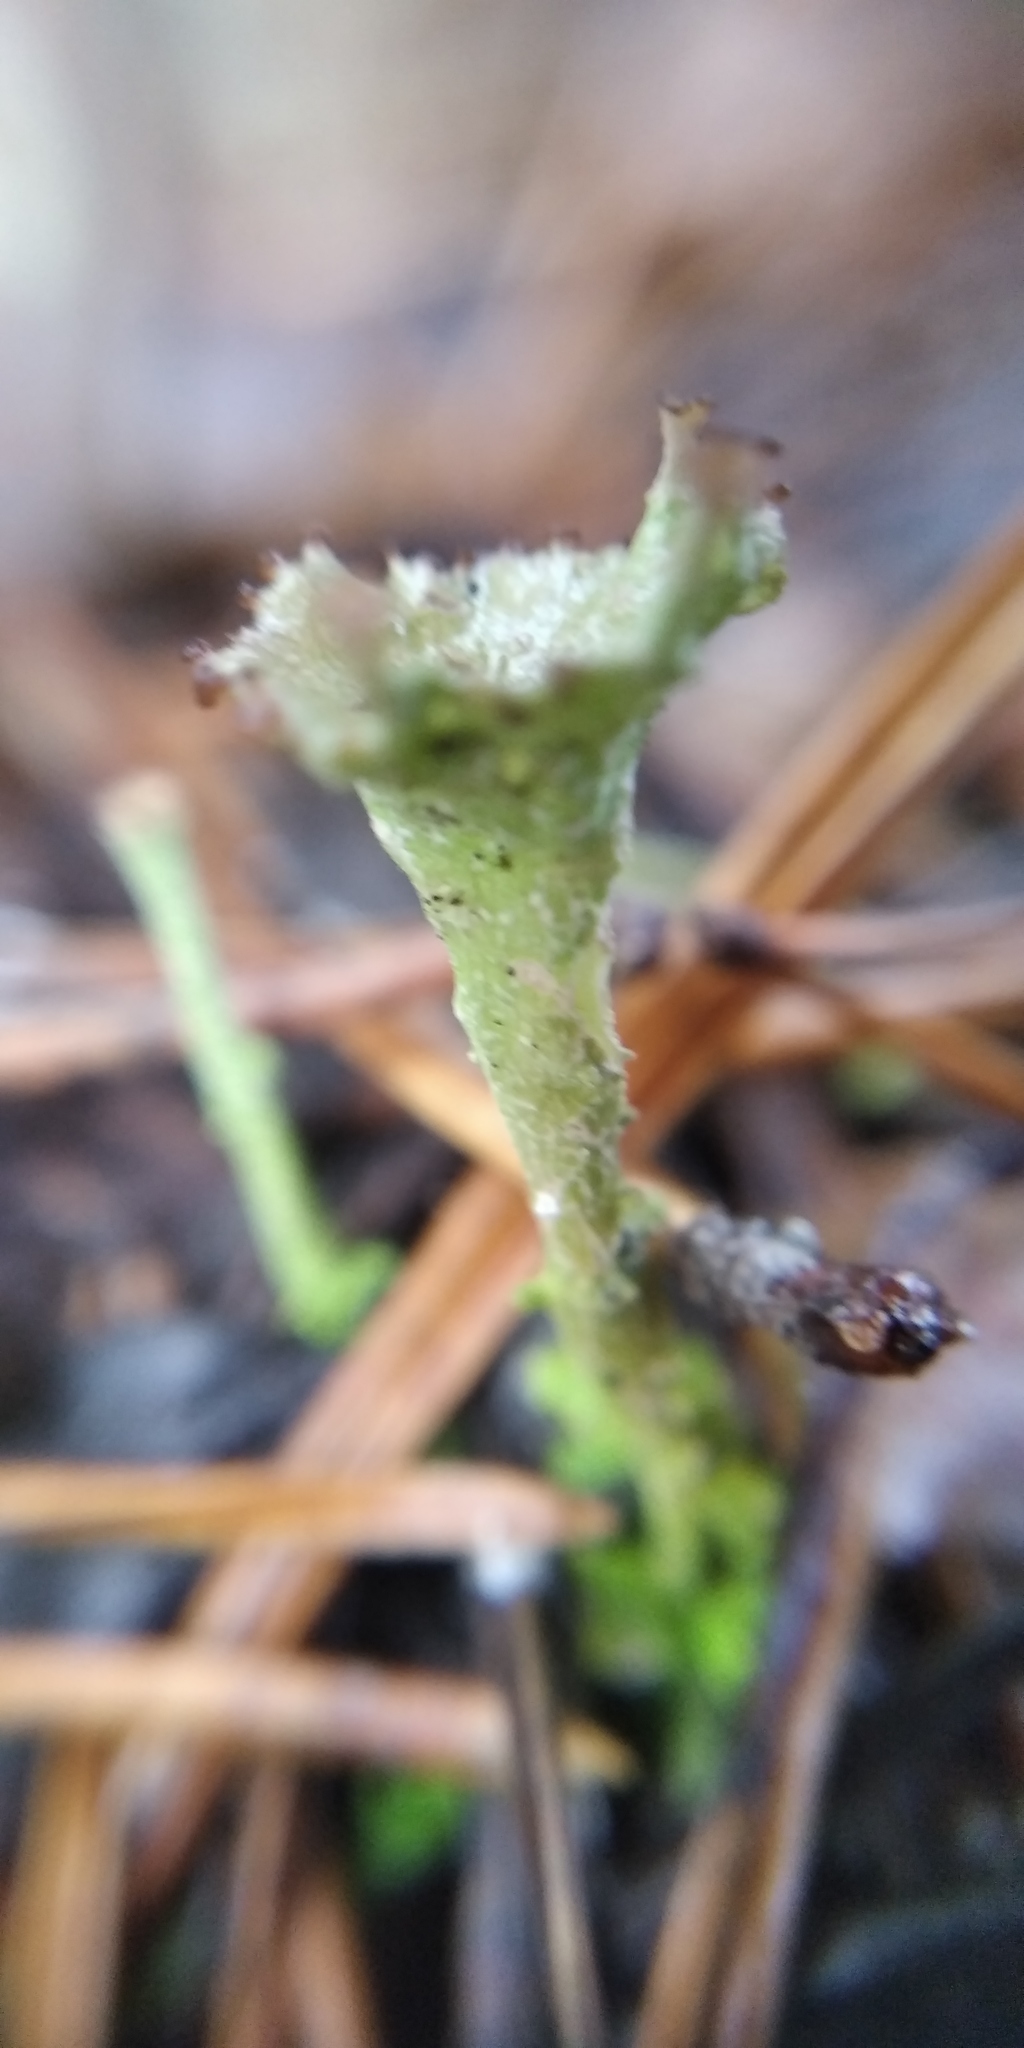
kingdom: Fungi
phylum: Ascomycota
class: Lecanoromycetes
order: Lecanorales
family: Cladoniaceae
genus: Cladonia
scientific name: Cladonia gracilis
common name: Smooth clad lichen
